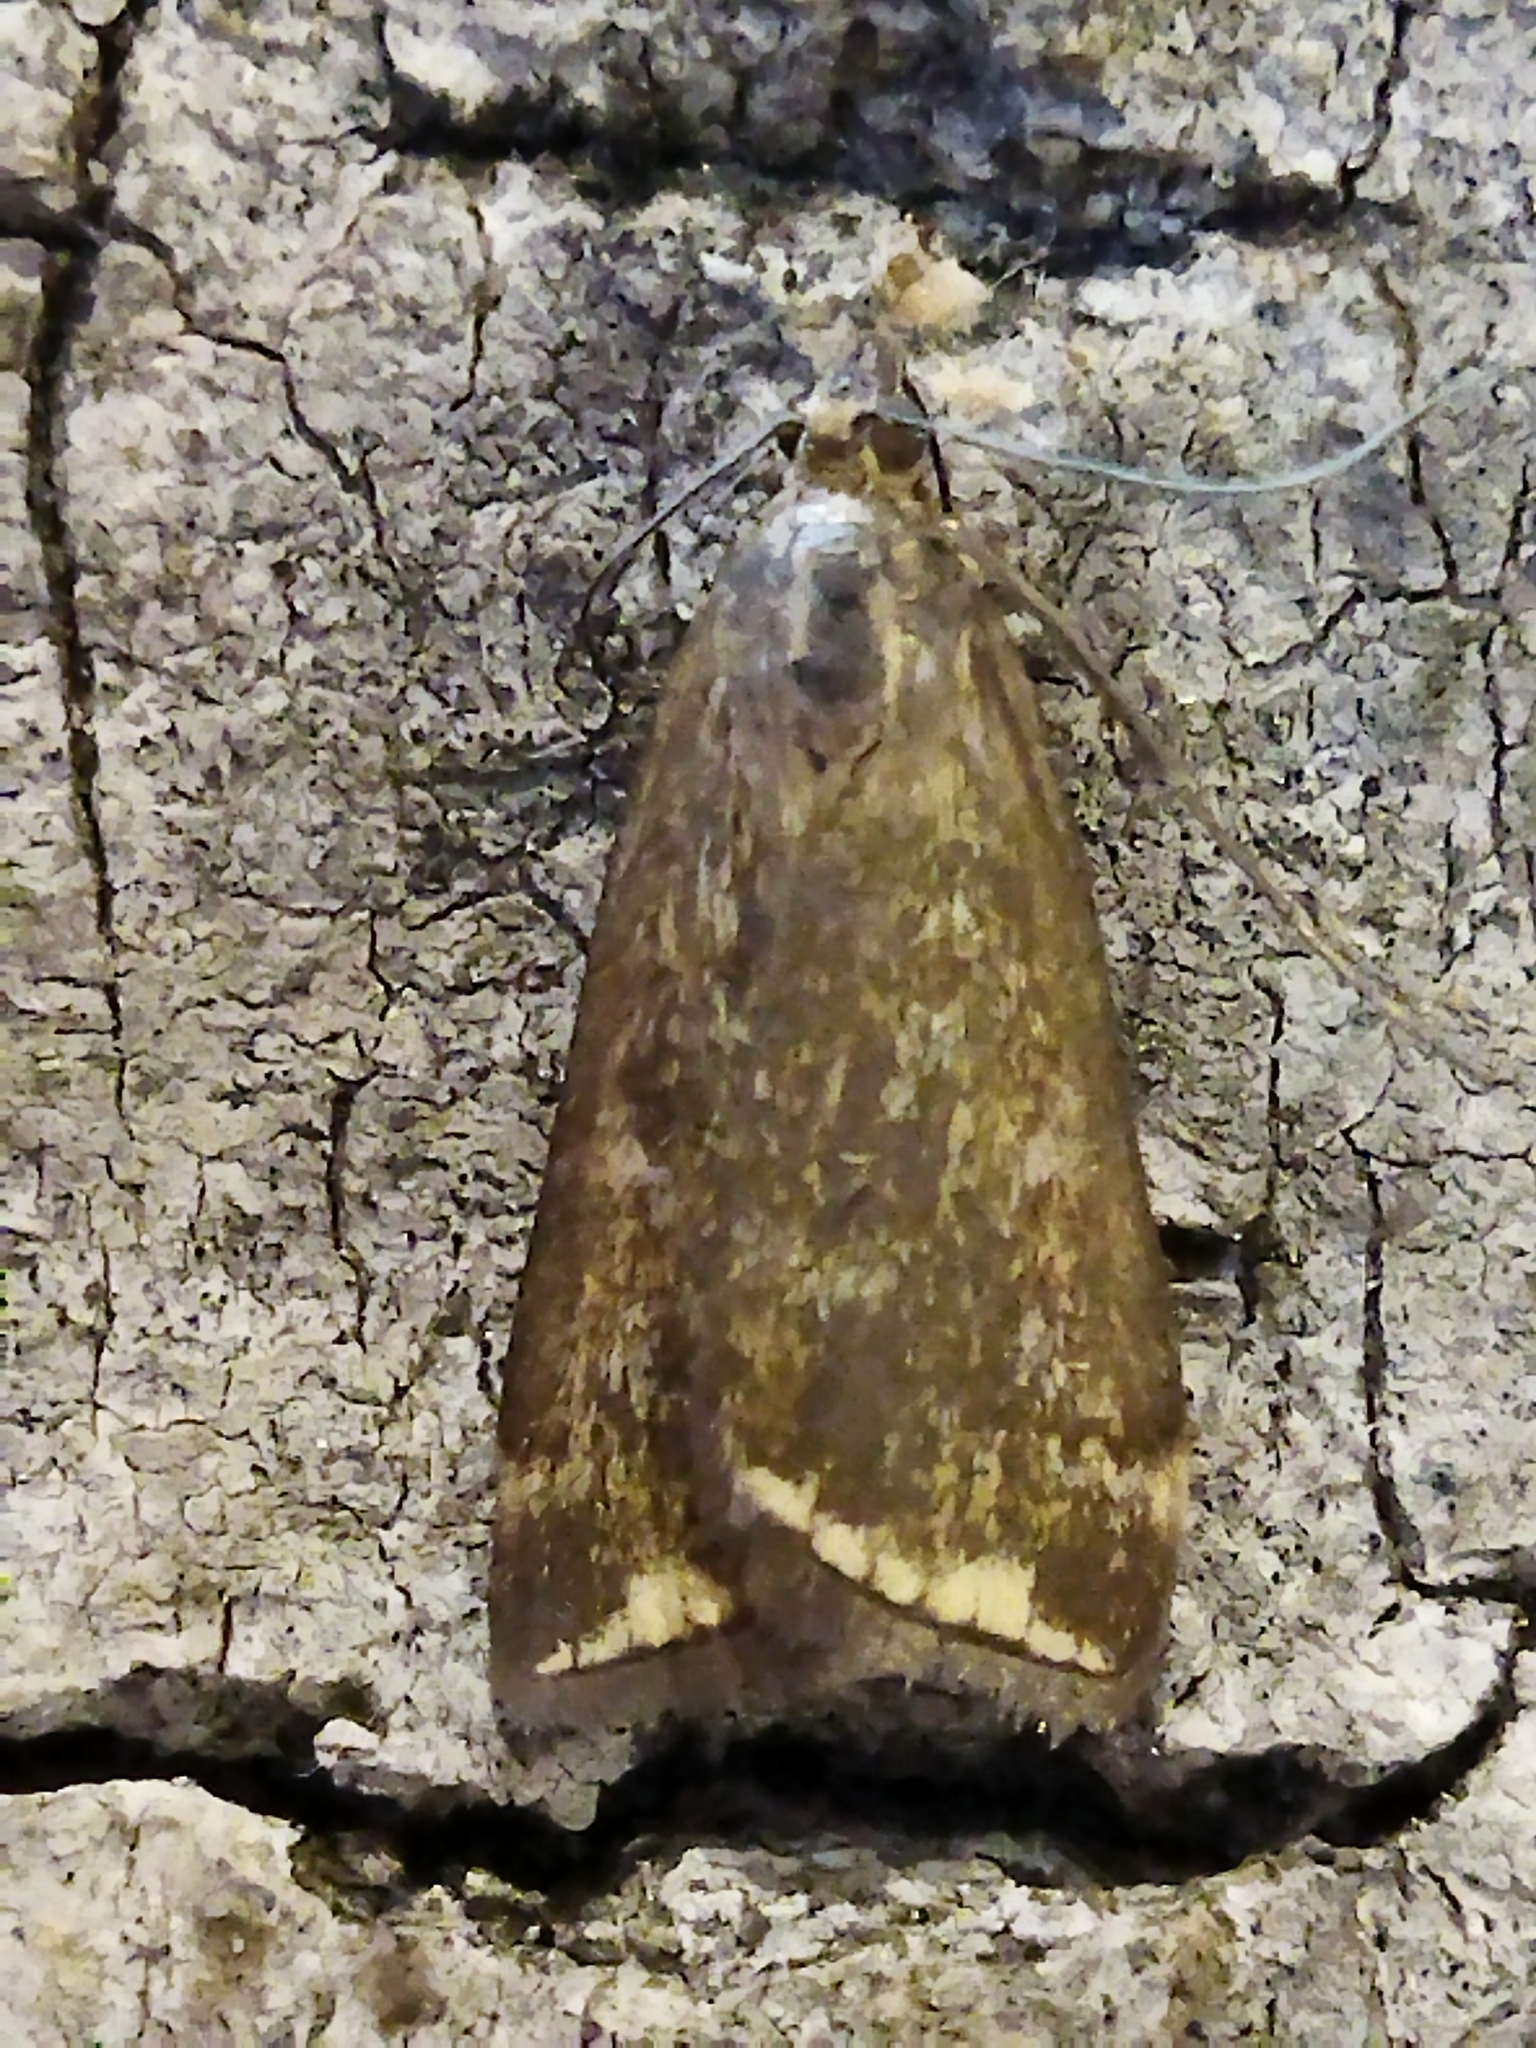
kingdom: Animalia
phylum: Arthropoda
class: Insecta
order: Lepidoptera
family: Crambidae
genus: Loxostege
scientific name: Loxostege sticticalis
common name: Crambid moth
